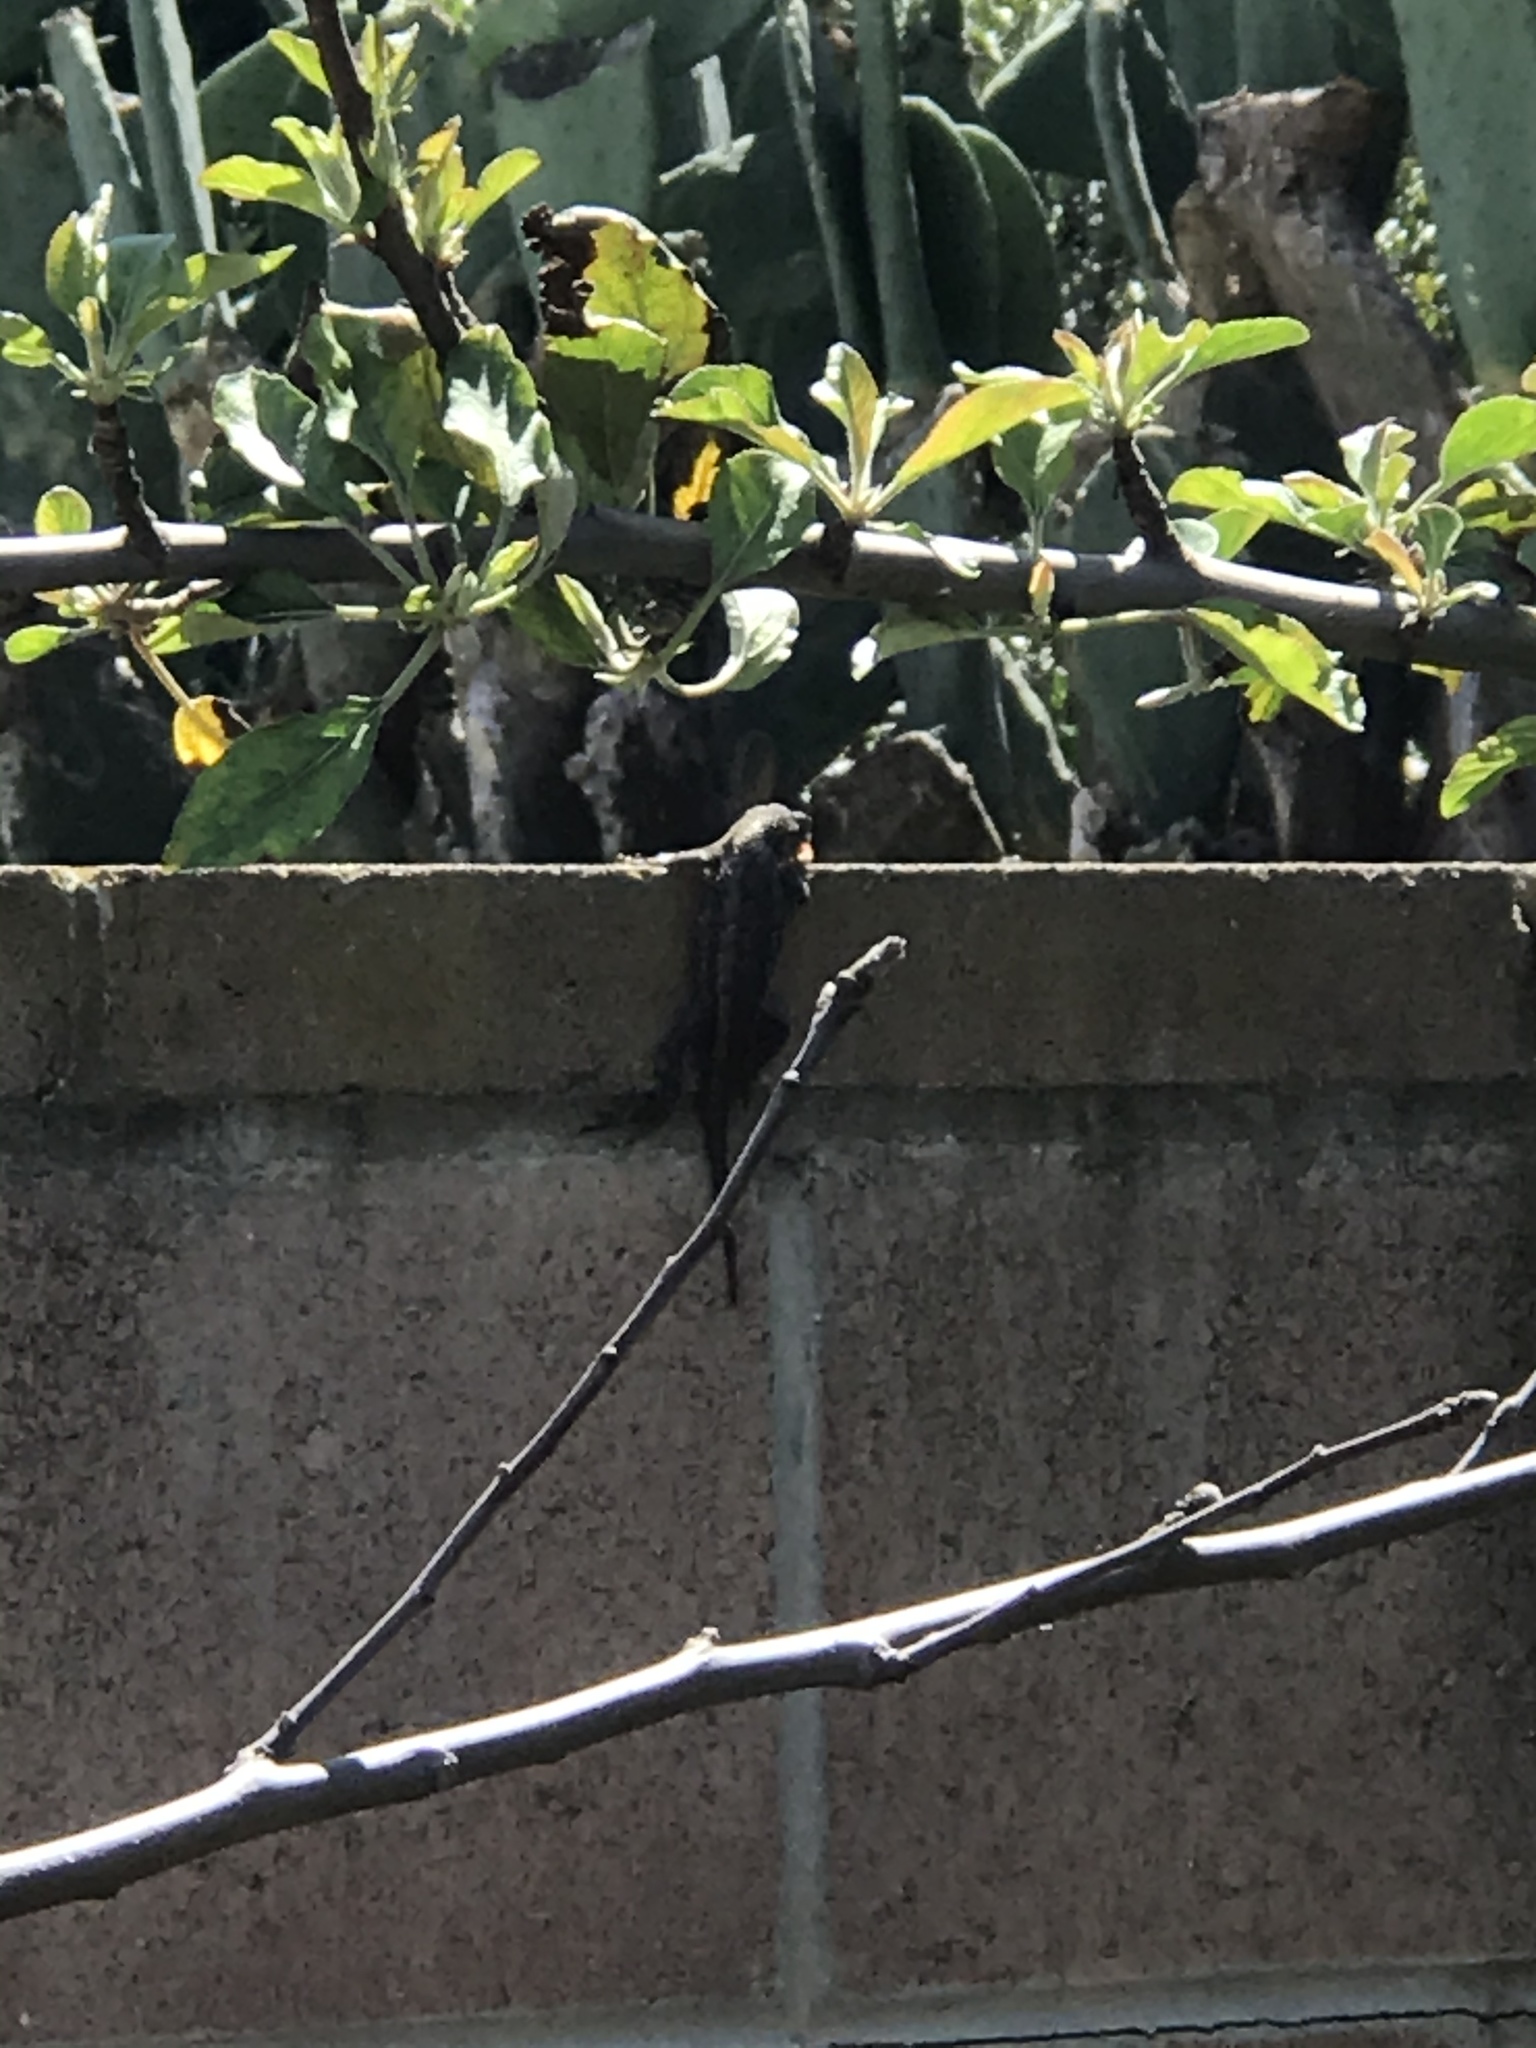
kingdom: Animalia
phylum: Chordata
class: Squamata
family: Phrynosomatidae
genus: Sceloporus
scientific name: Sceloporus occidentalis
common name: Western fence lizard
